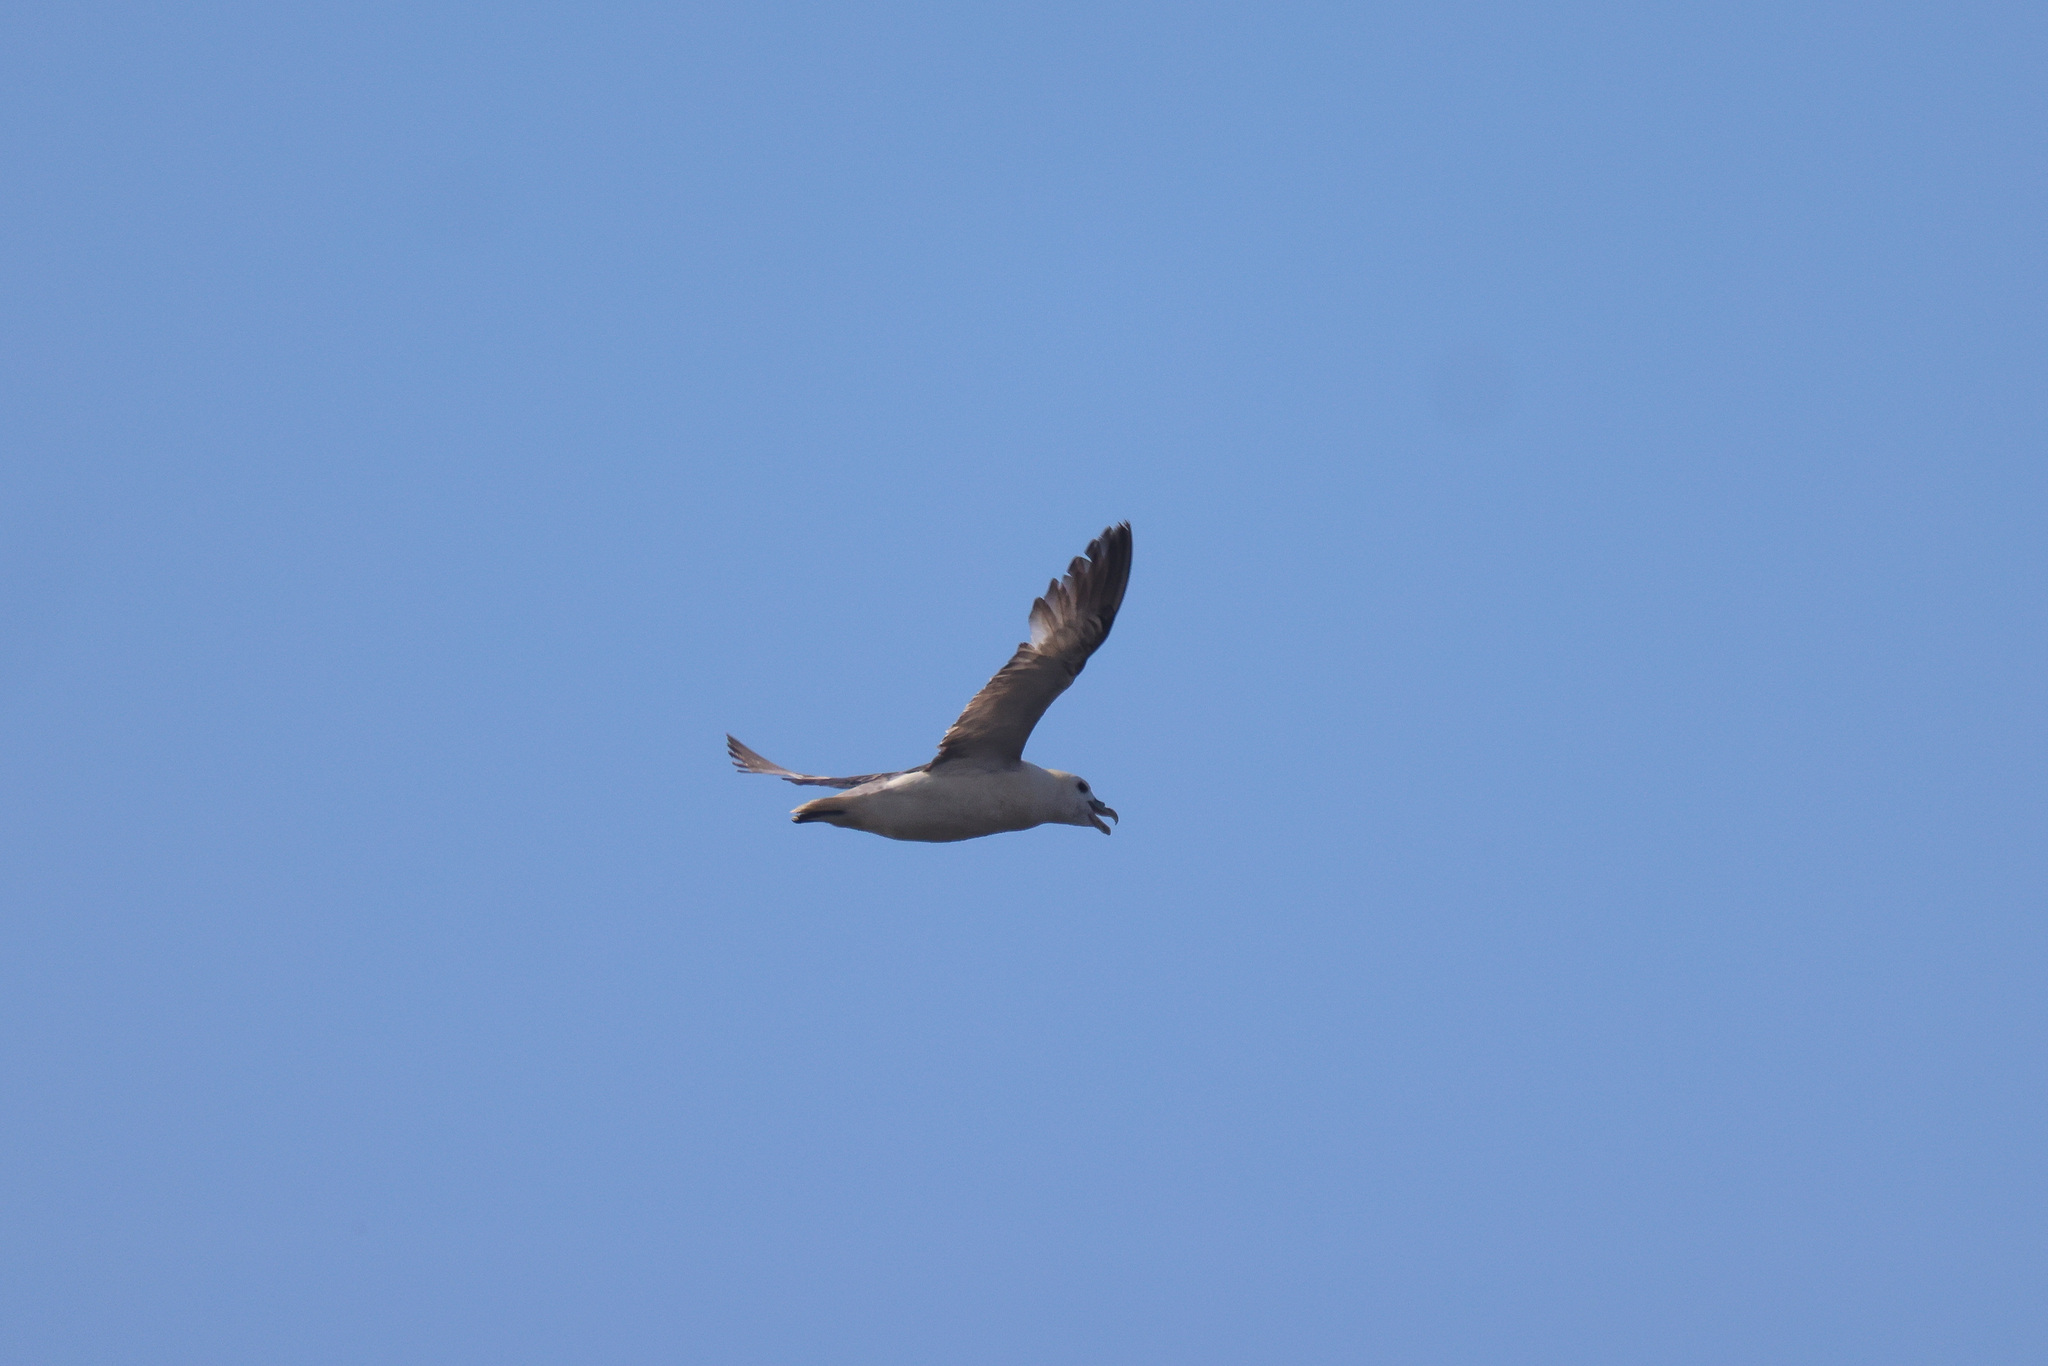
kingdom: Animalia
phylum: Chordata
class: Aves
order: Procellariiformes
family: Procellariidae
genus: Fulmarus
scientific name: Fulmarus glacialis
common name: Northern fulmar
